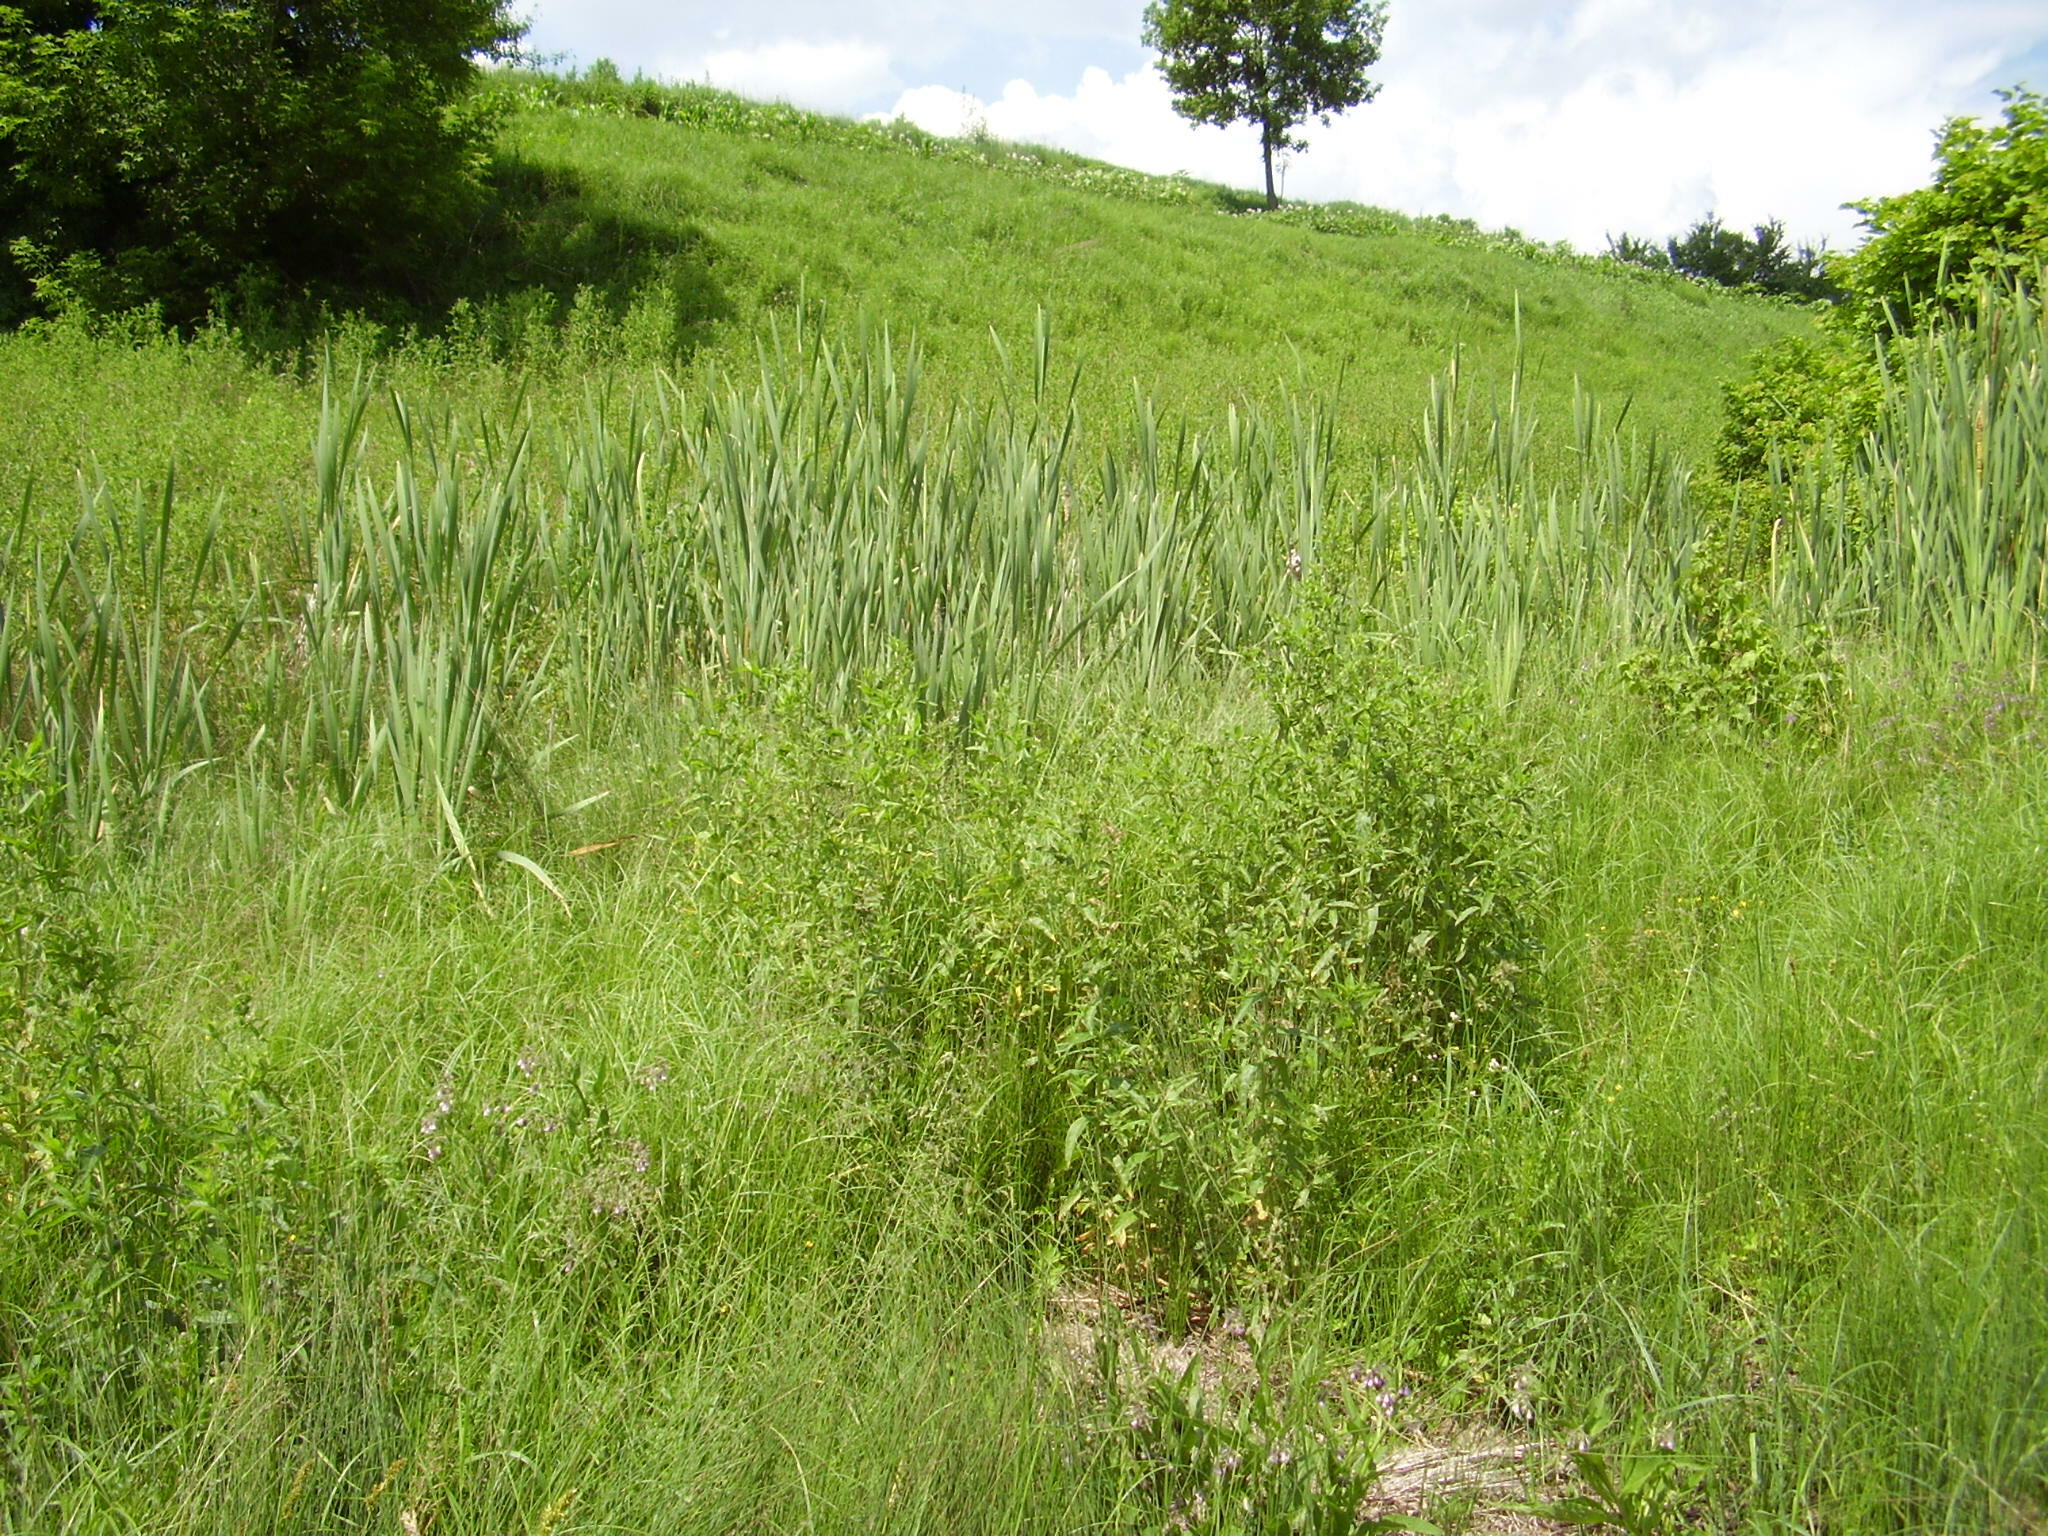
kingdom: Plantae
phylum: Tracheophyta
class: Magnoliopsida
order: Boraginales
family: Boraginaceae
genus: Symphytum
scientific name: Symphytum officinale
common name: Common comfrey
